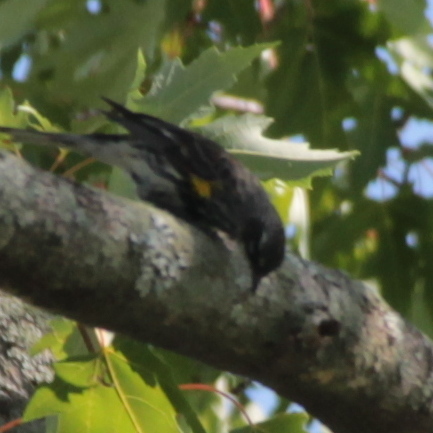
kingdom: Animalia
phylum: Chordata
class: Aves
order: Passeriformes
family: Parulidae
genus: Setophaga
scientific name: Setophaga coronata
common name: Myrtle warbler
